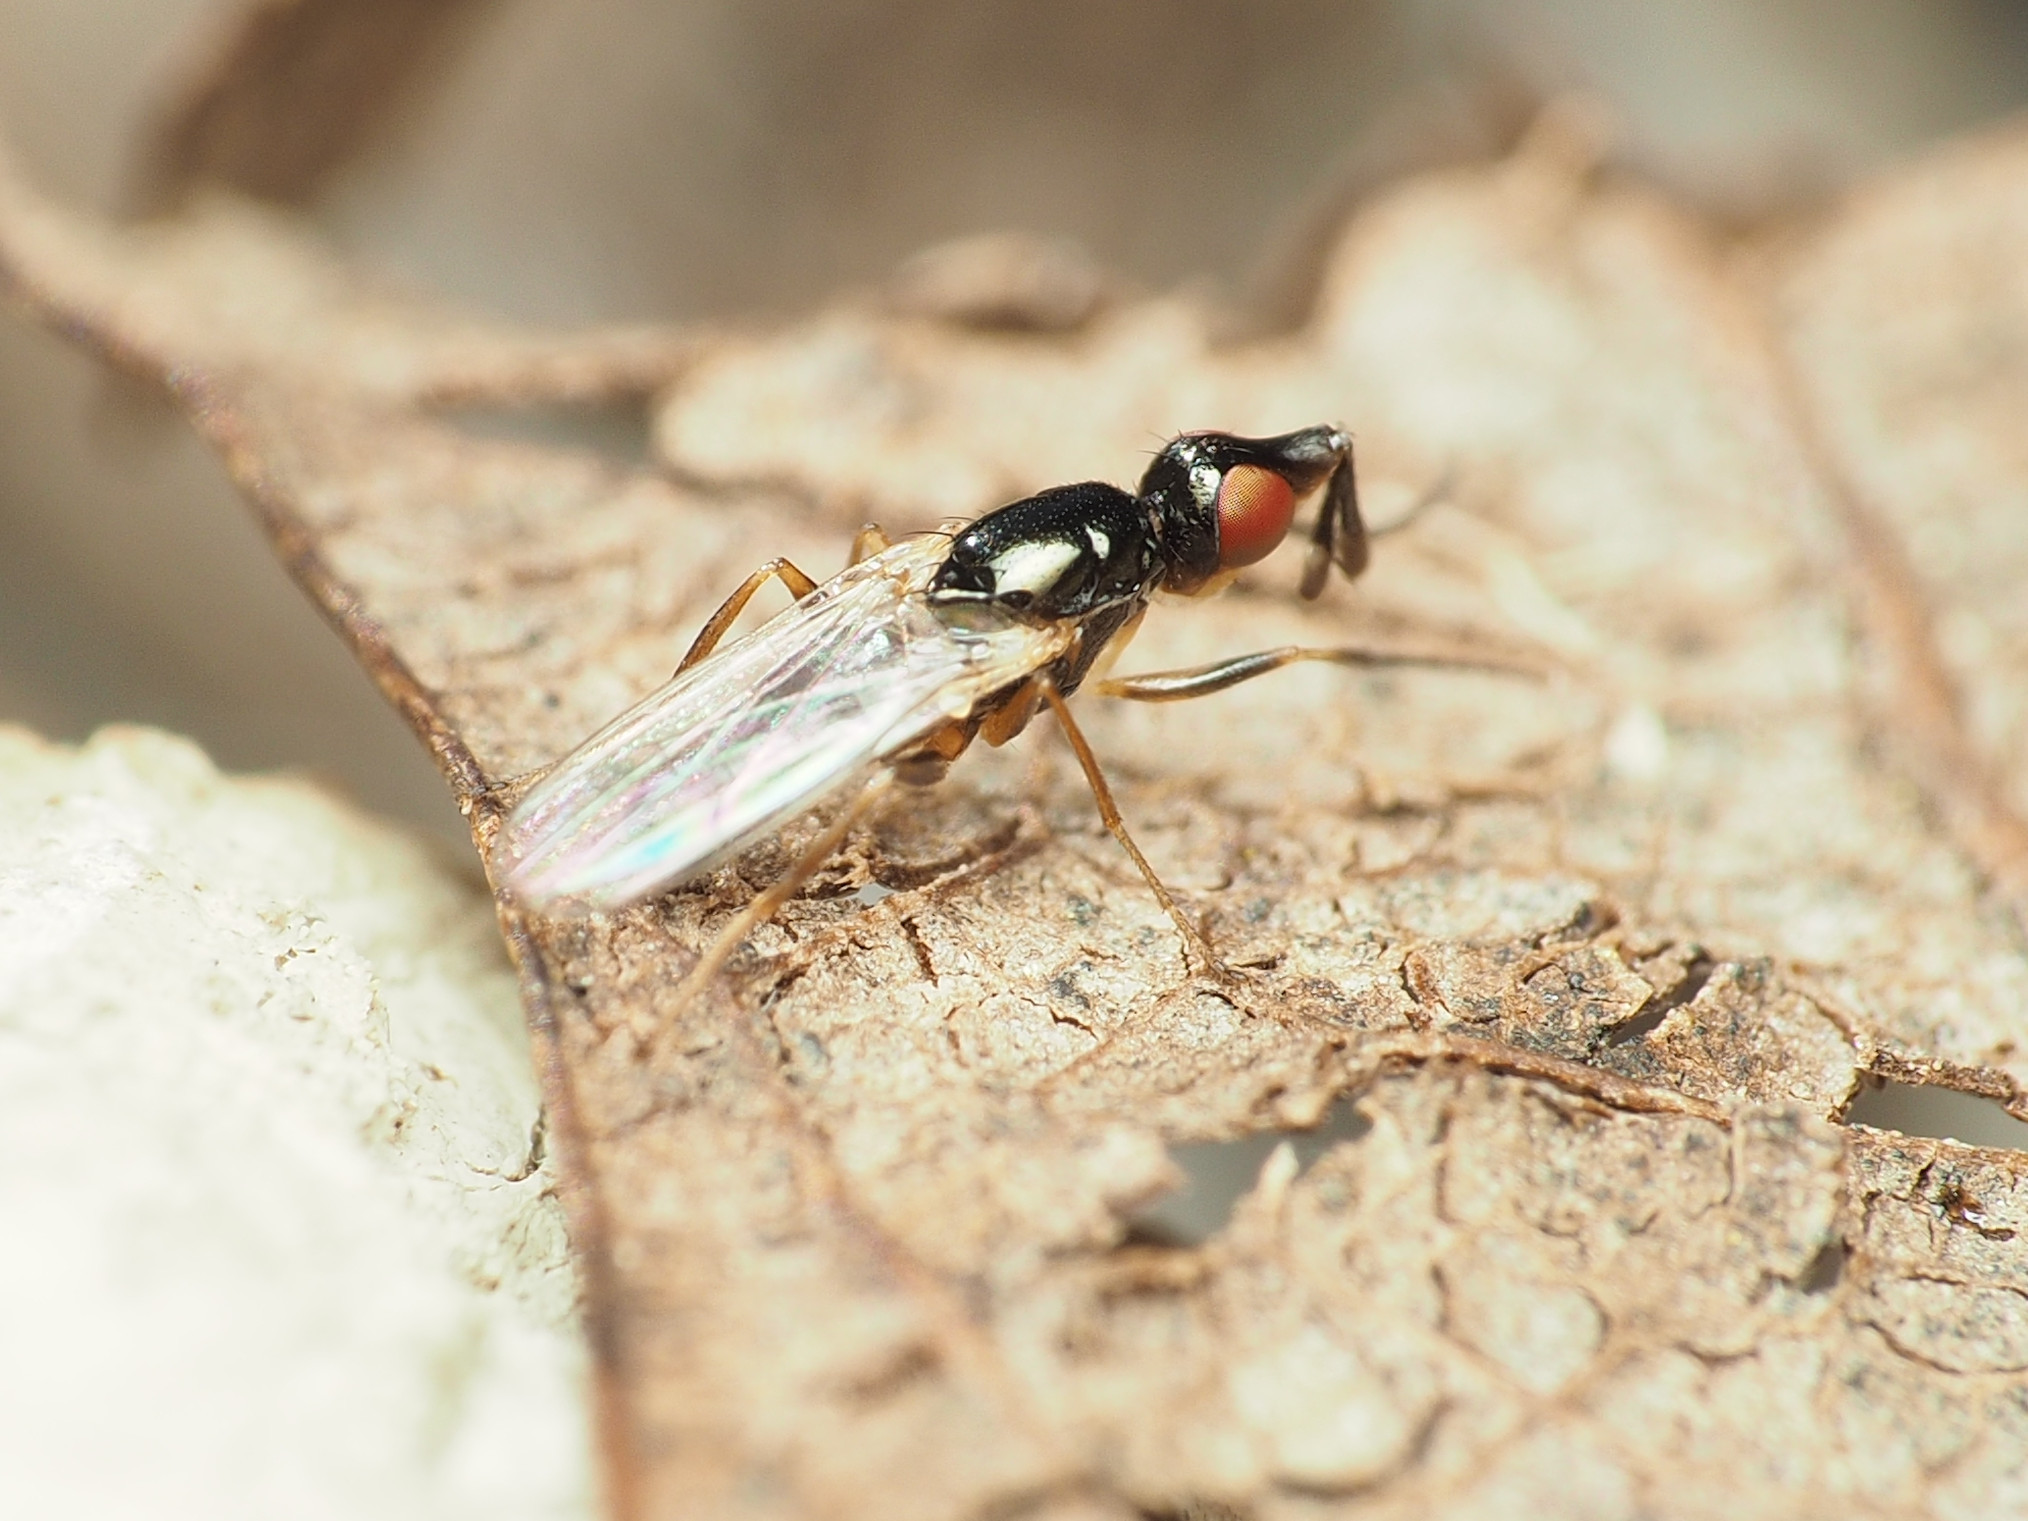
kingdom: Animalia
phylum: Arthropoda
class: Insecta
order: Diptera
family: Piophilidae
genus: Prochyliza
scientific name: Prochyliza xanthostoma
